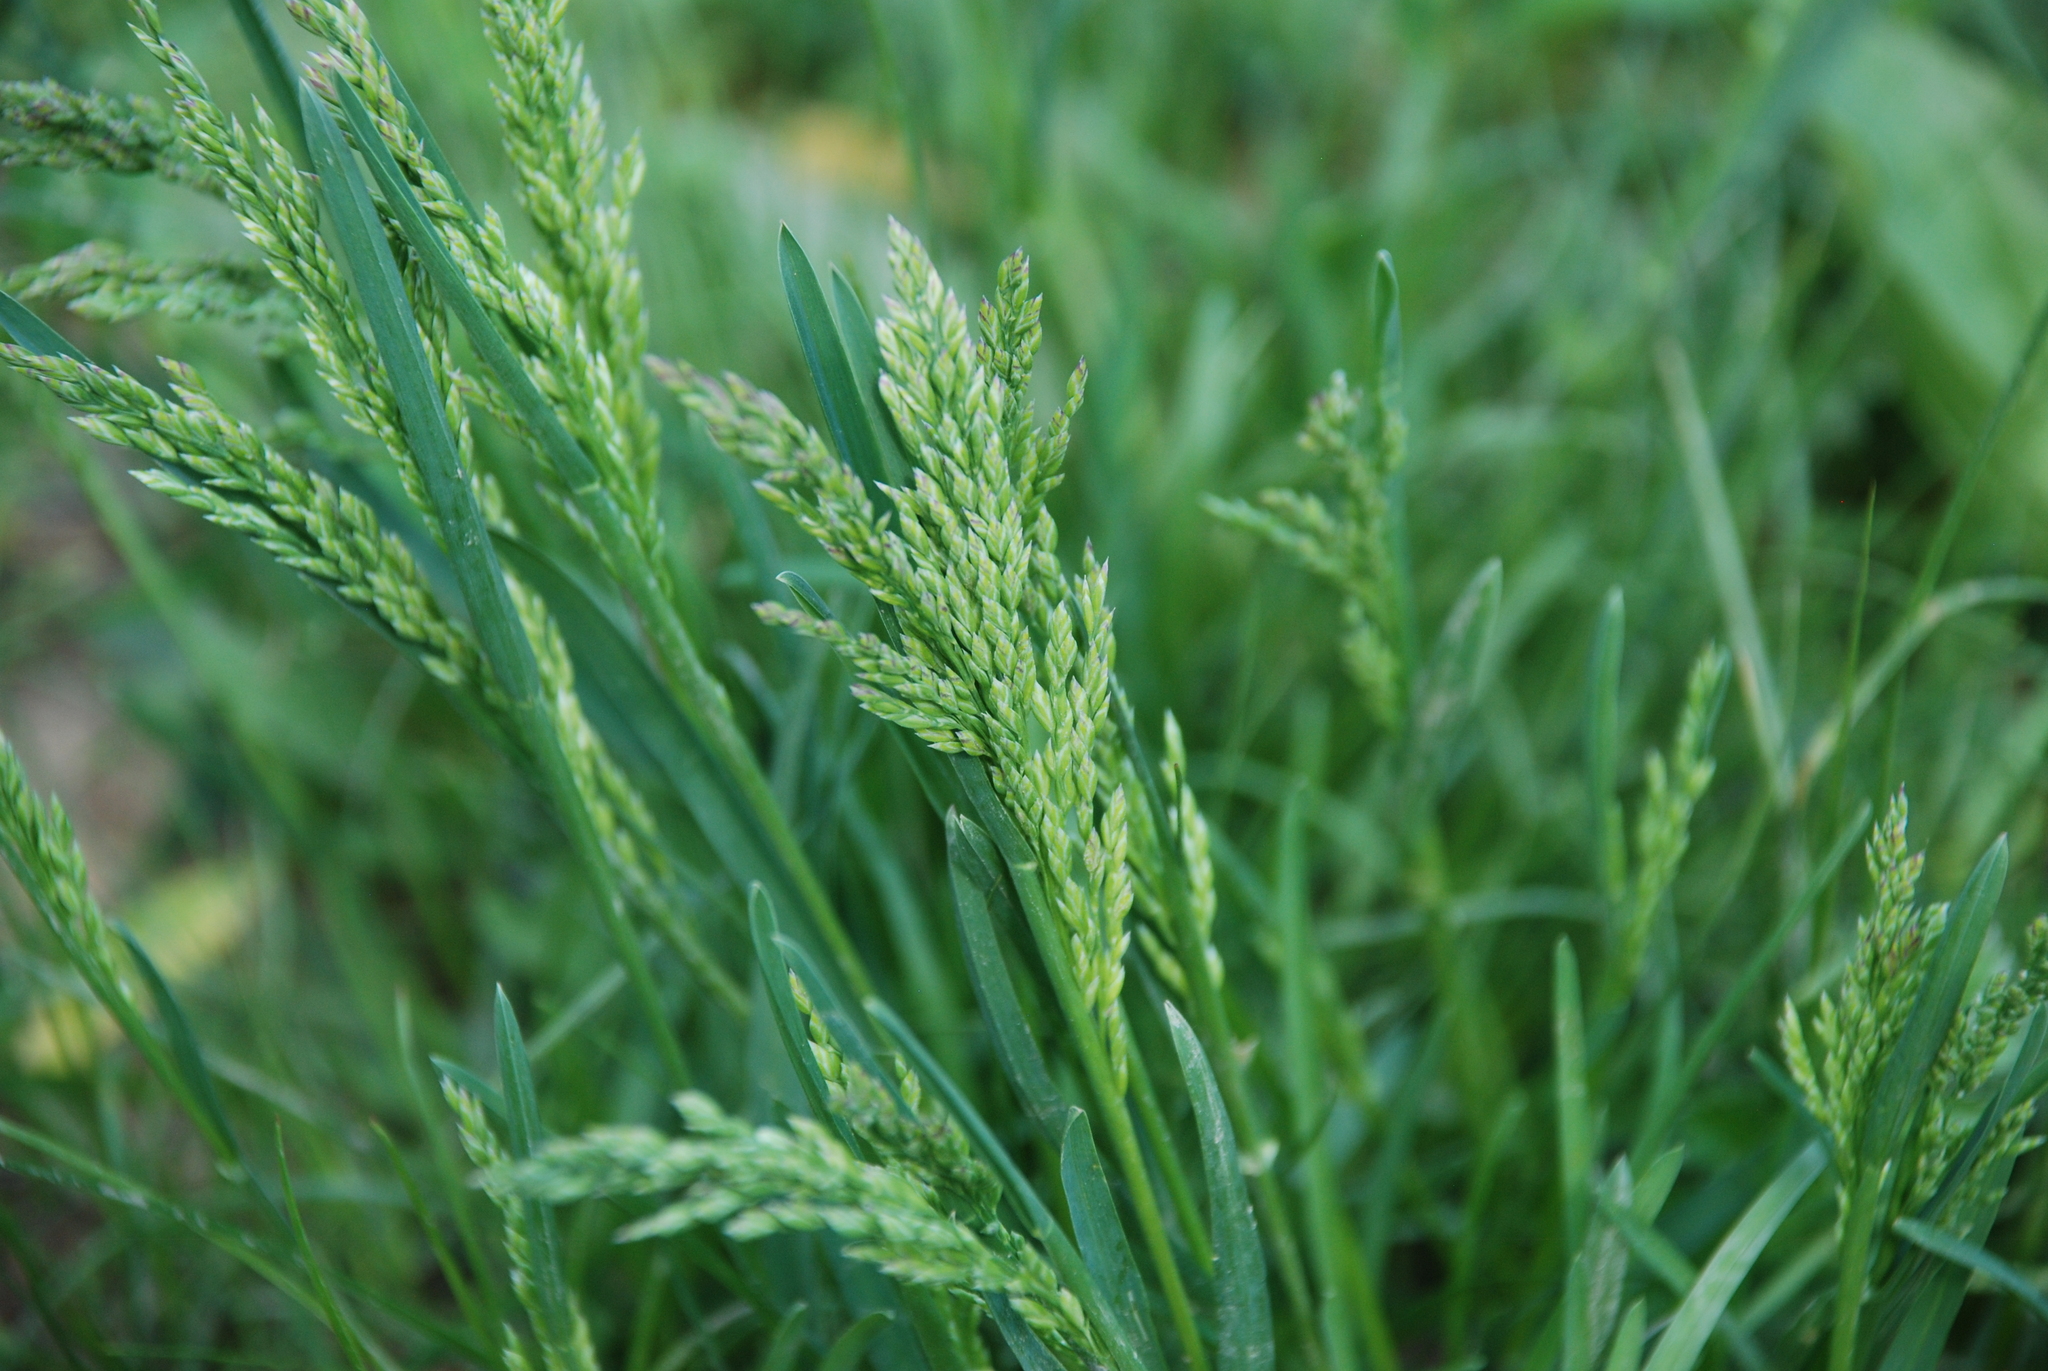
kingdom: Plantae
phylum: Tracheophyta
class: Liliopsida
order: Poales
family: Poaceae
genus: Poa
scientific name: Poa pratensis
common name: Kentucky bluegrass
